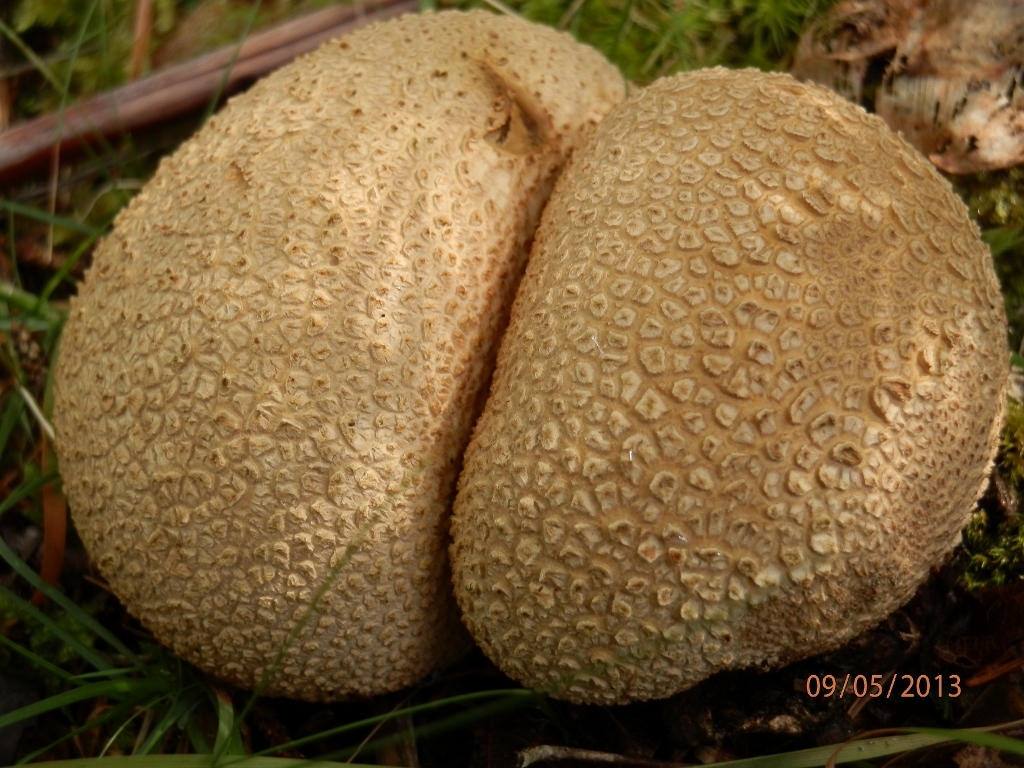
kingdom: Fungi
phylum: Basidiomycota
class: Agaricomycetes
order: Boletales
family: Sclerodermataceae
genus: Scleroderma
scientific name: Scleroderma citrinum
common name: Common earthball
